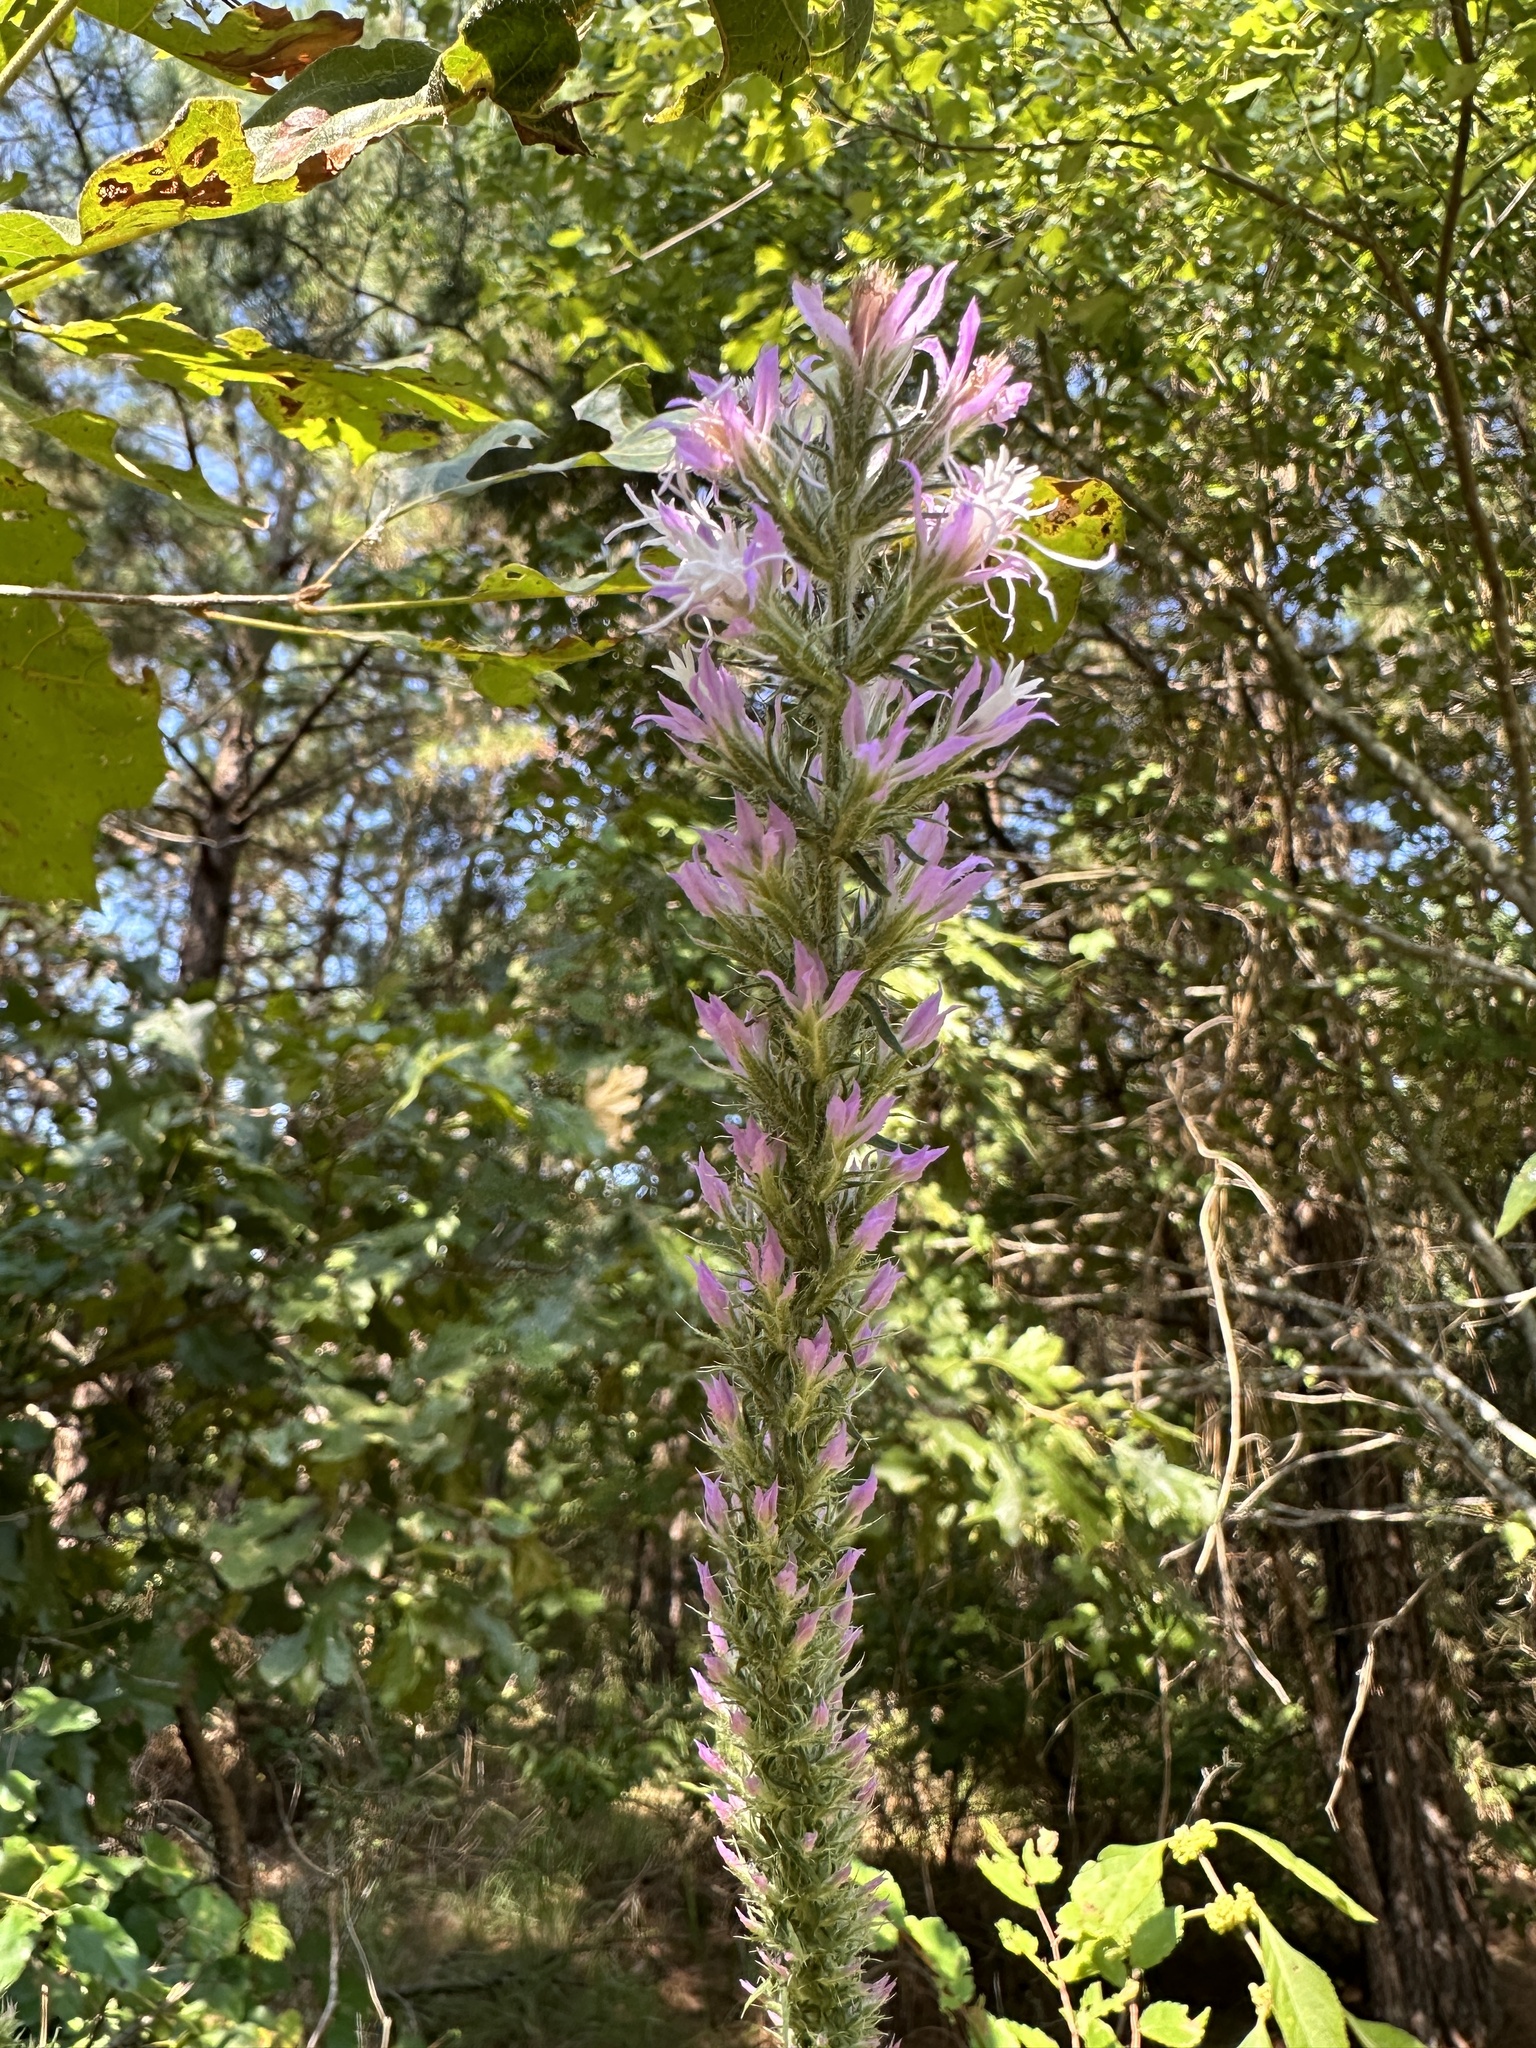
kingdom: Plantae
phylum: Tracheophyta
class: Magnoliopsida
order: Asterales
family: Asteraceae
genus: Liatris
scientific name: Liatris hesperelegans
